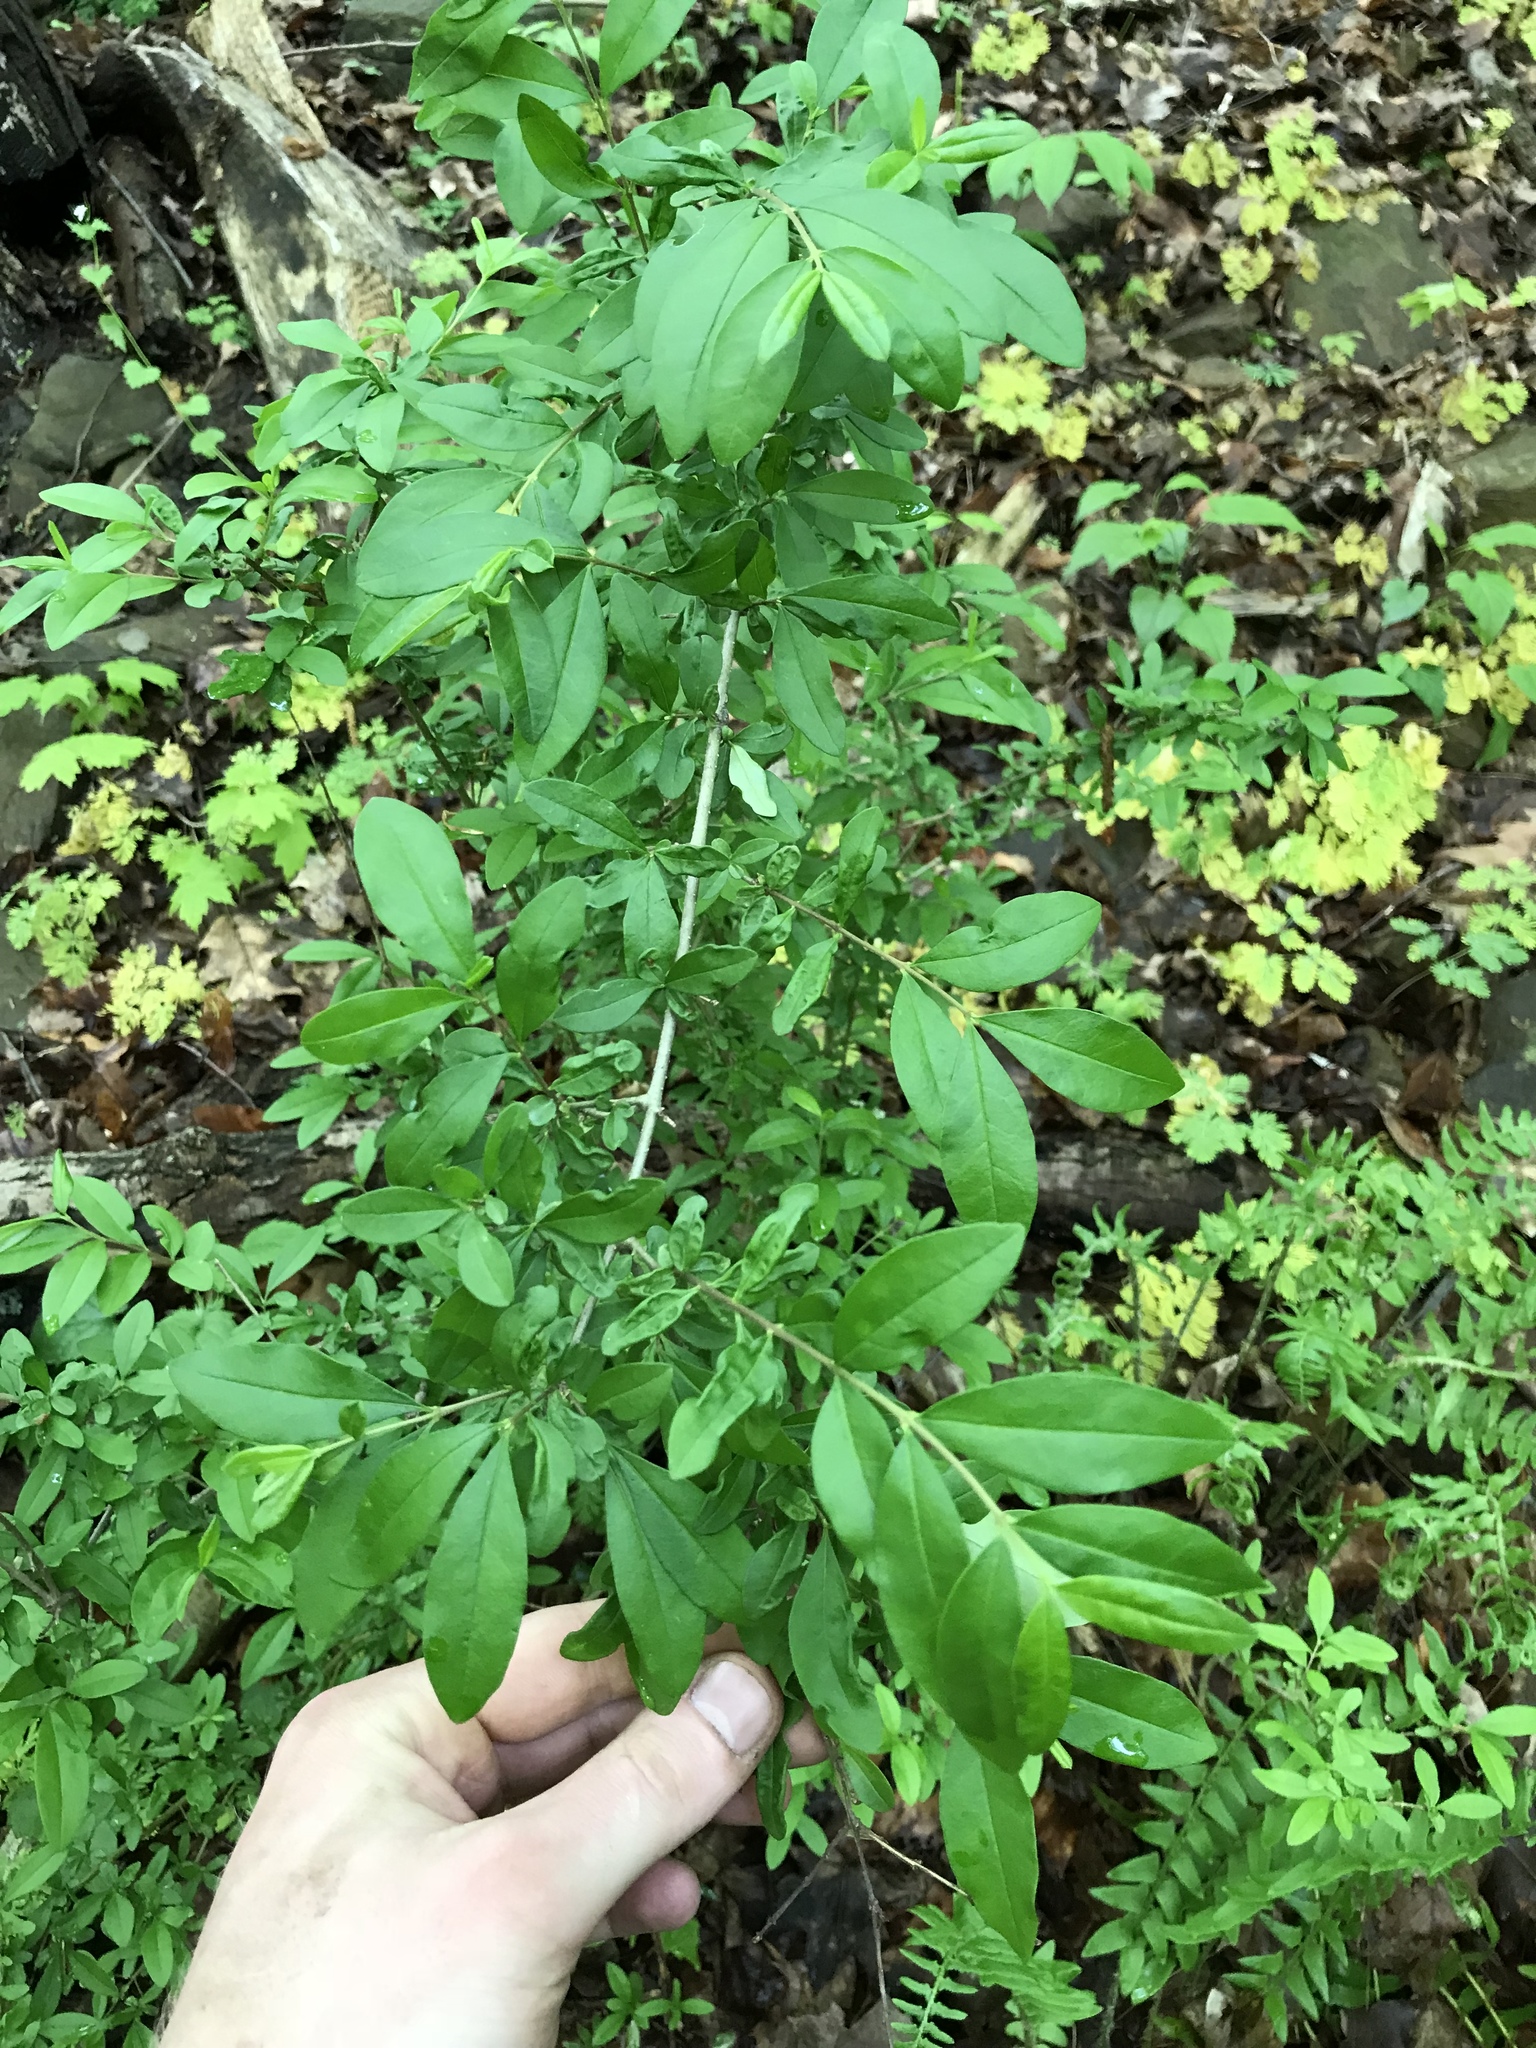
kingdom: Plantae
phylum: Tracheophyta
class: Magnoliopsida
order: Lamiales
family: Oleaceae
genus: Ligustrum
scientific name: Ligustrum obtusifolium
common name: Border privet
